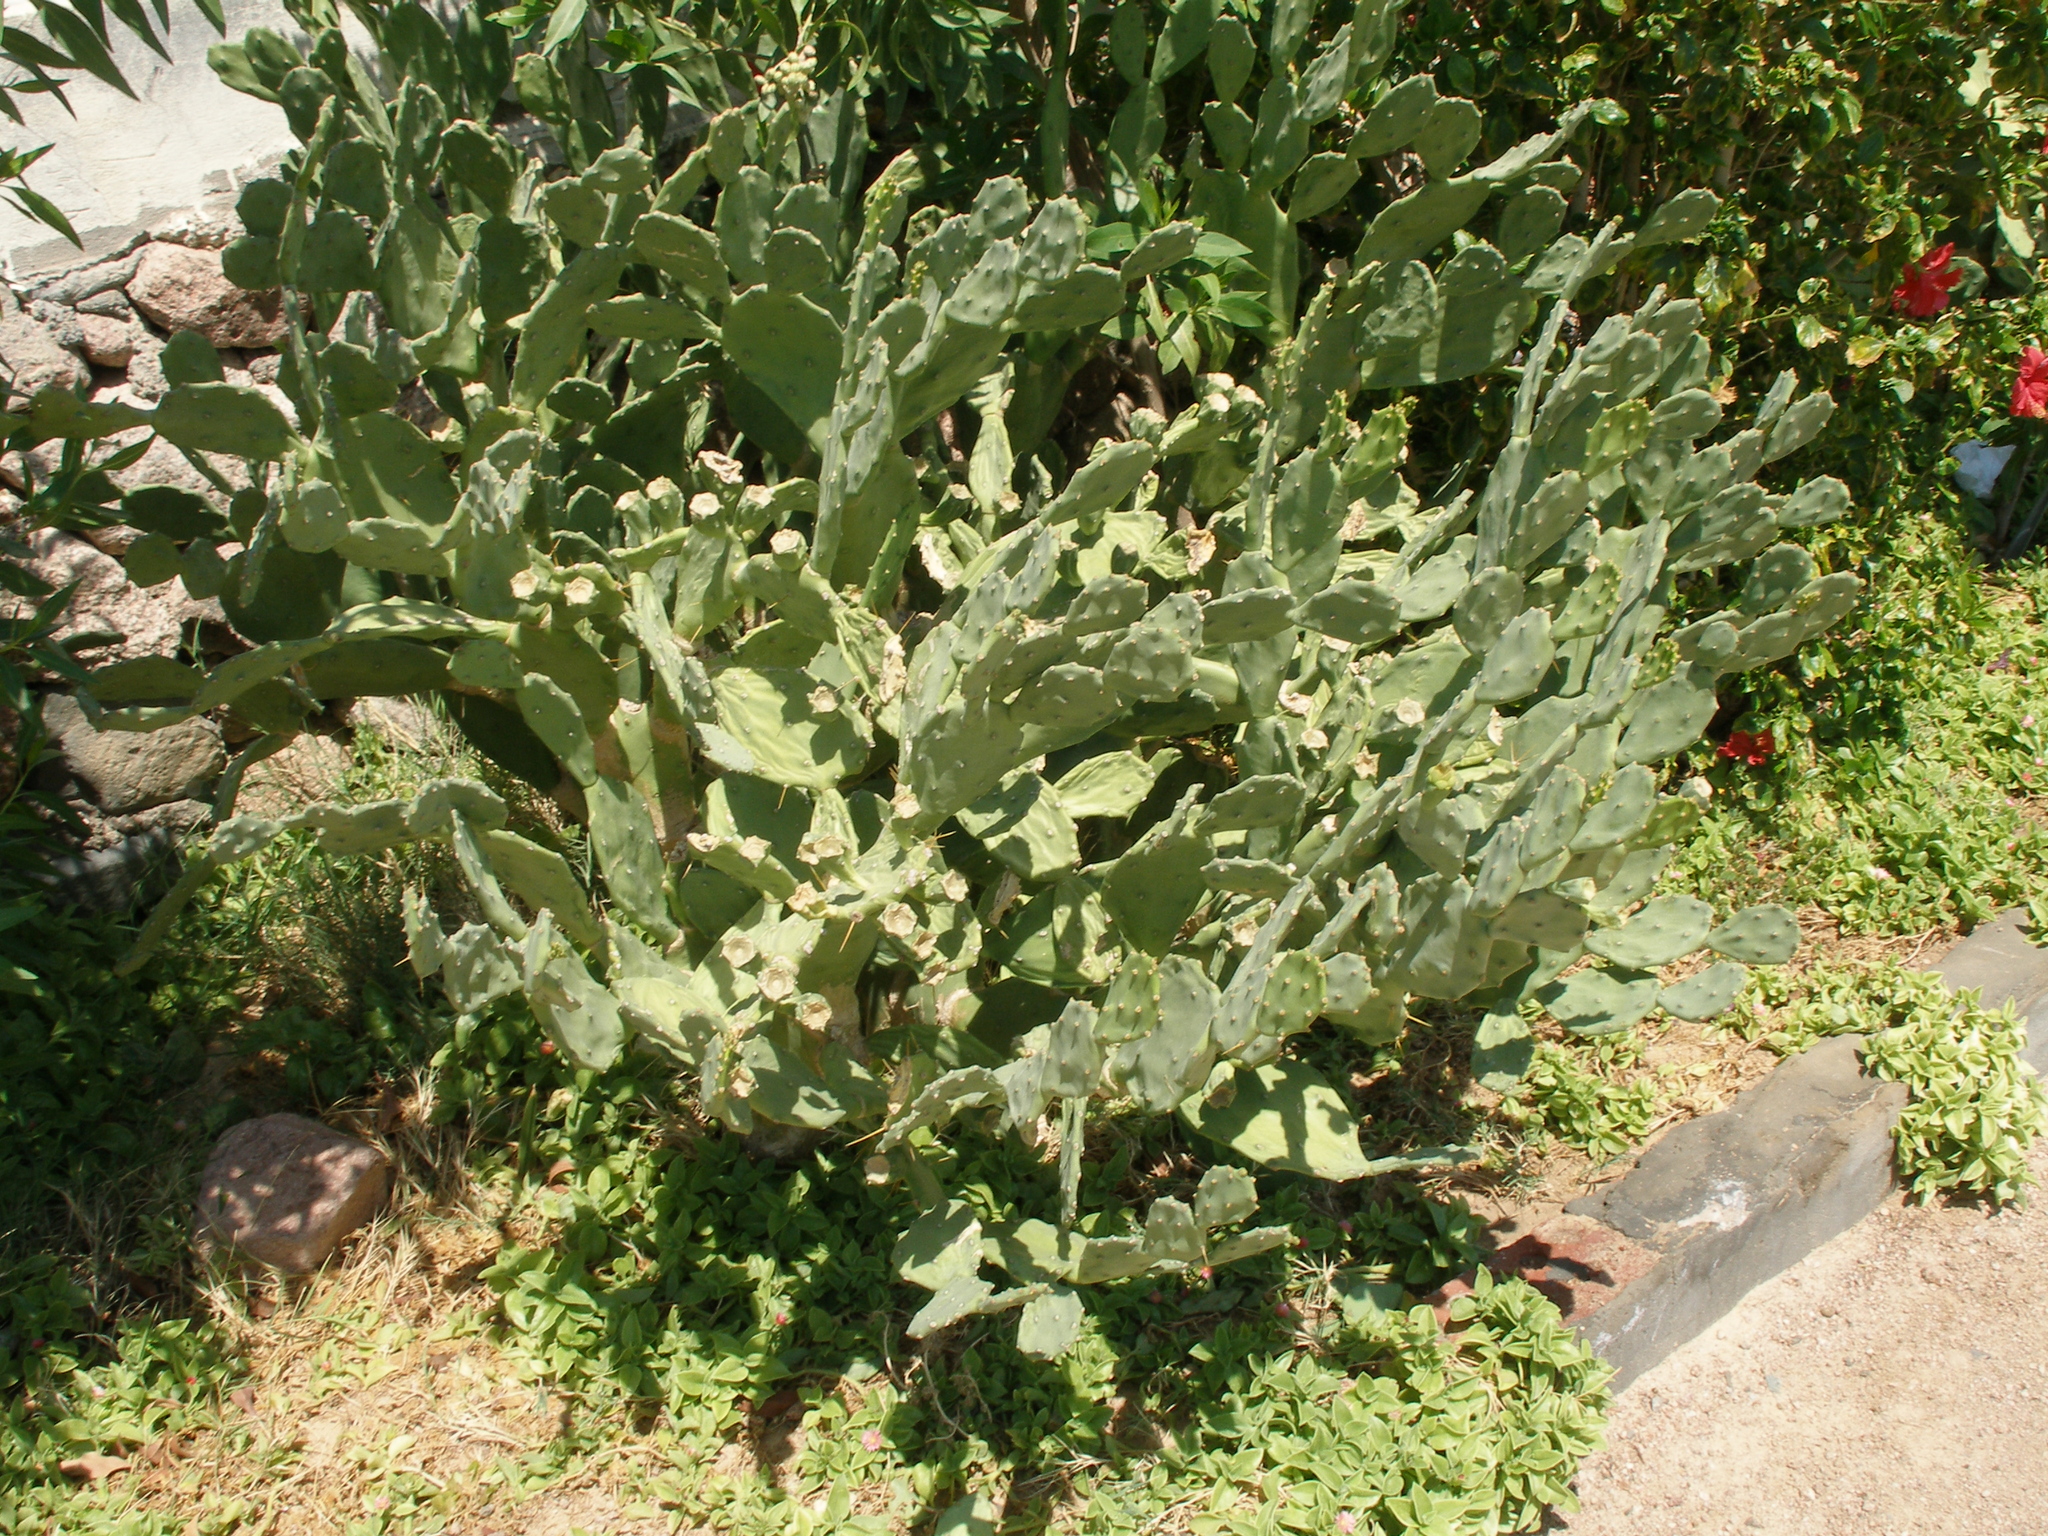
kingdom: Plantae
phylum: Tracheophyta
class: Magnoliopsida
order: Caryophyllales
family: Cactaceae
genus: Opuntia
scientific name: Opuntia stricta
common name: Erect pricklypear
